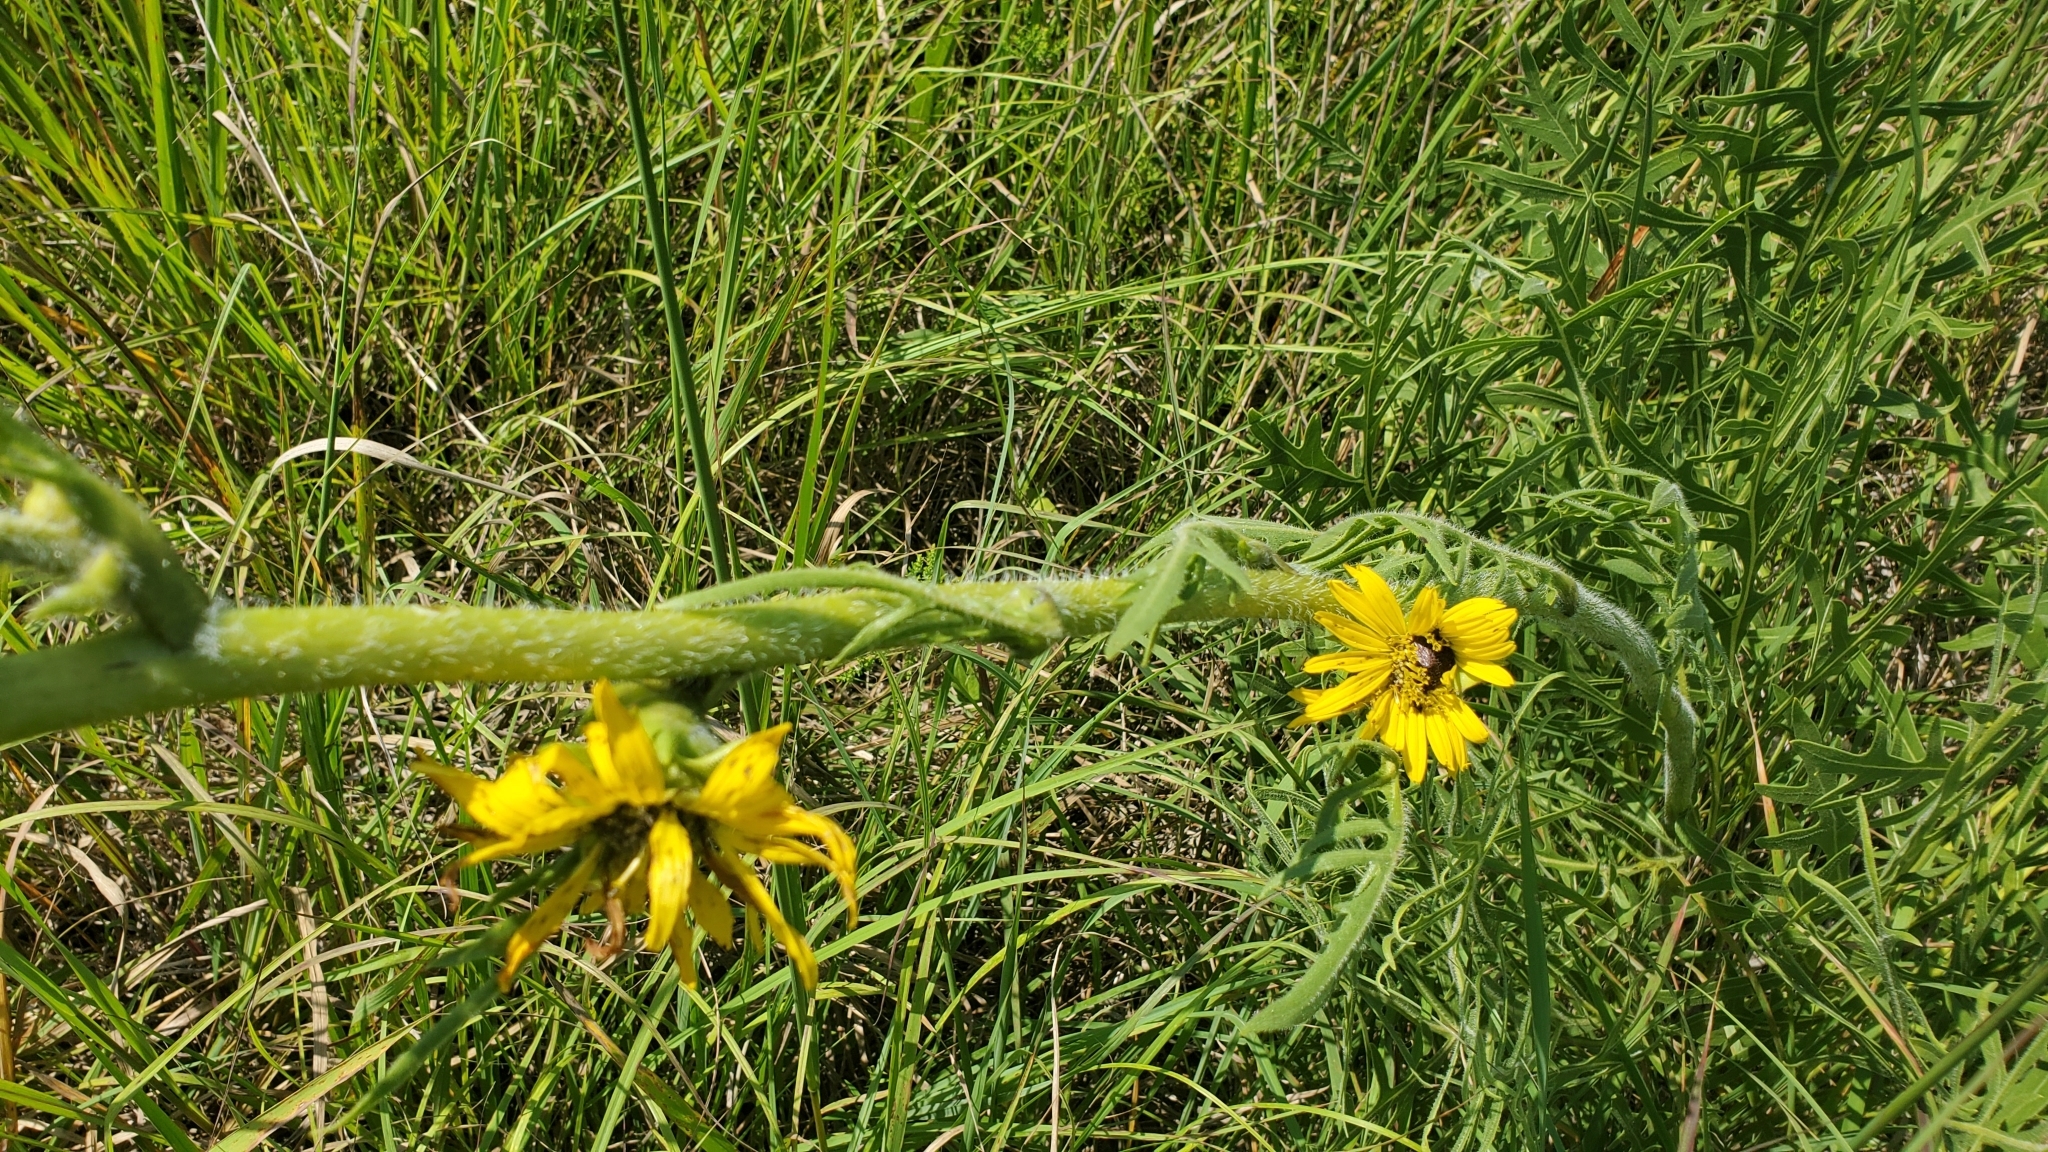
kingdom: Plantae
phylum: Tracheophyta
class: Magnoliopsida
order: Asterales
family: Asteraceae
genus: Silphium
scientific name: Silphium laciniatum
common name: Polarplant
